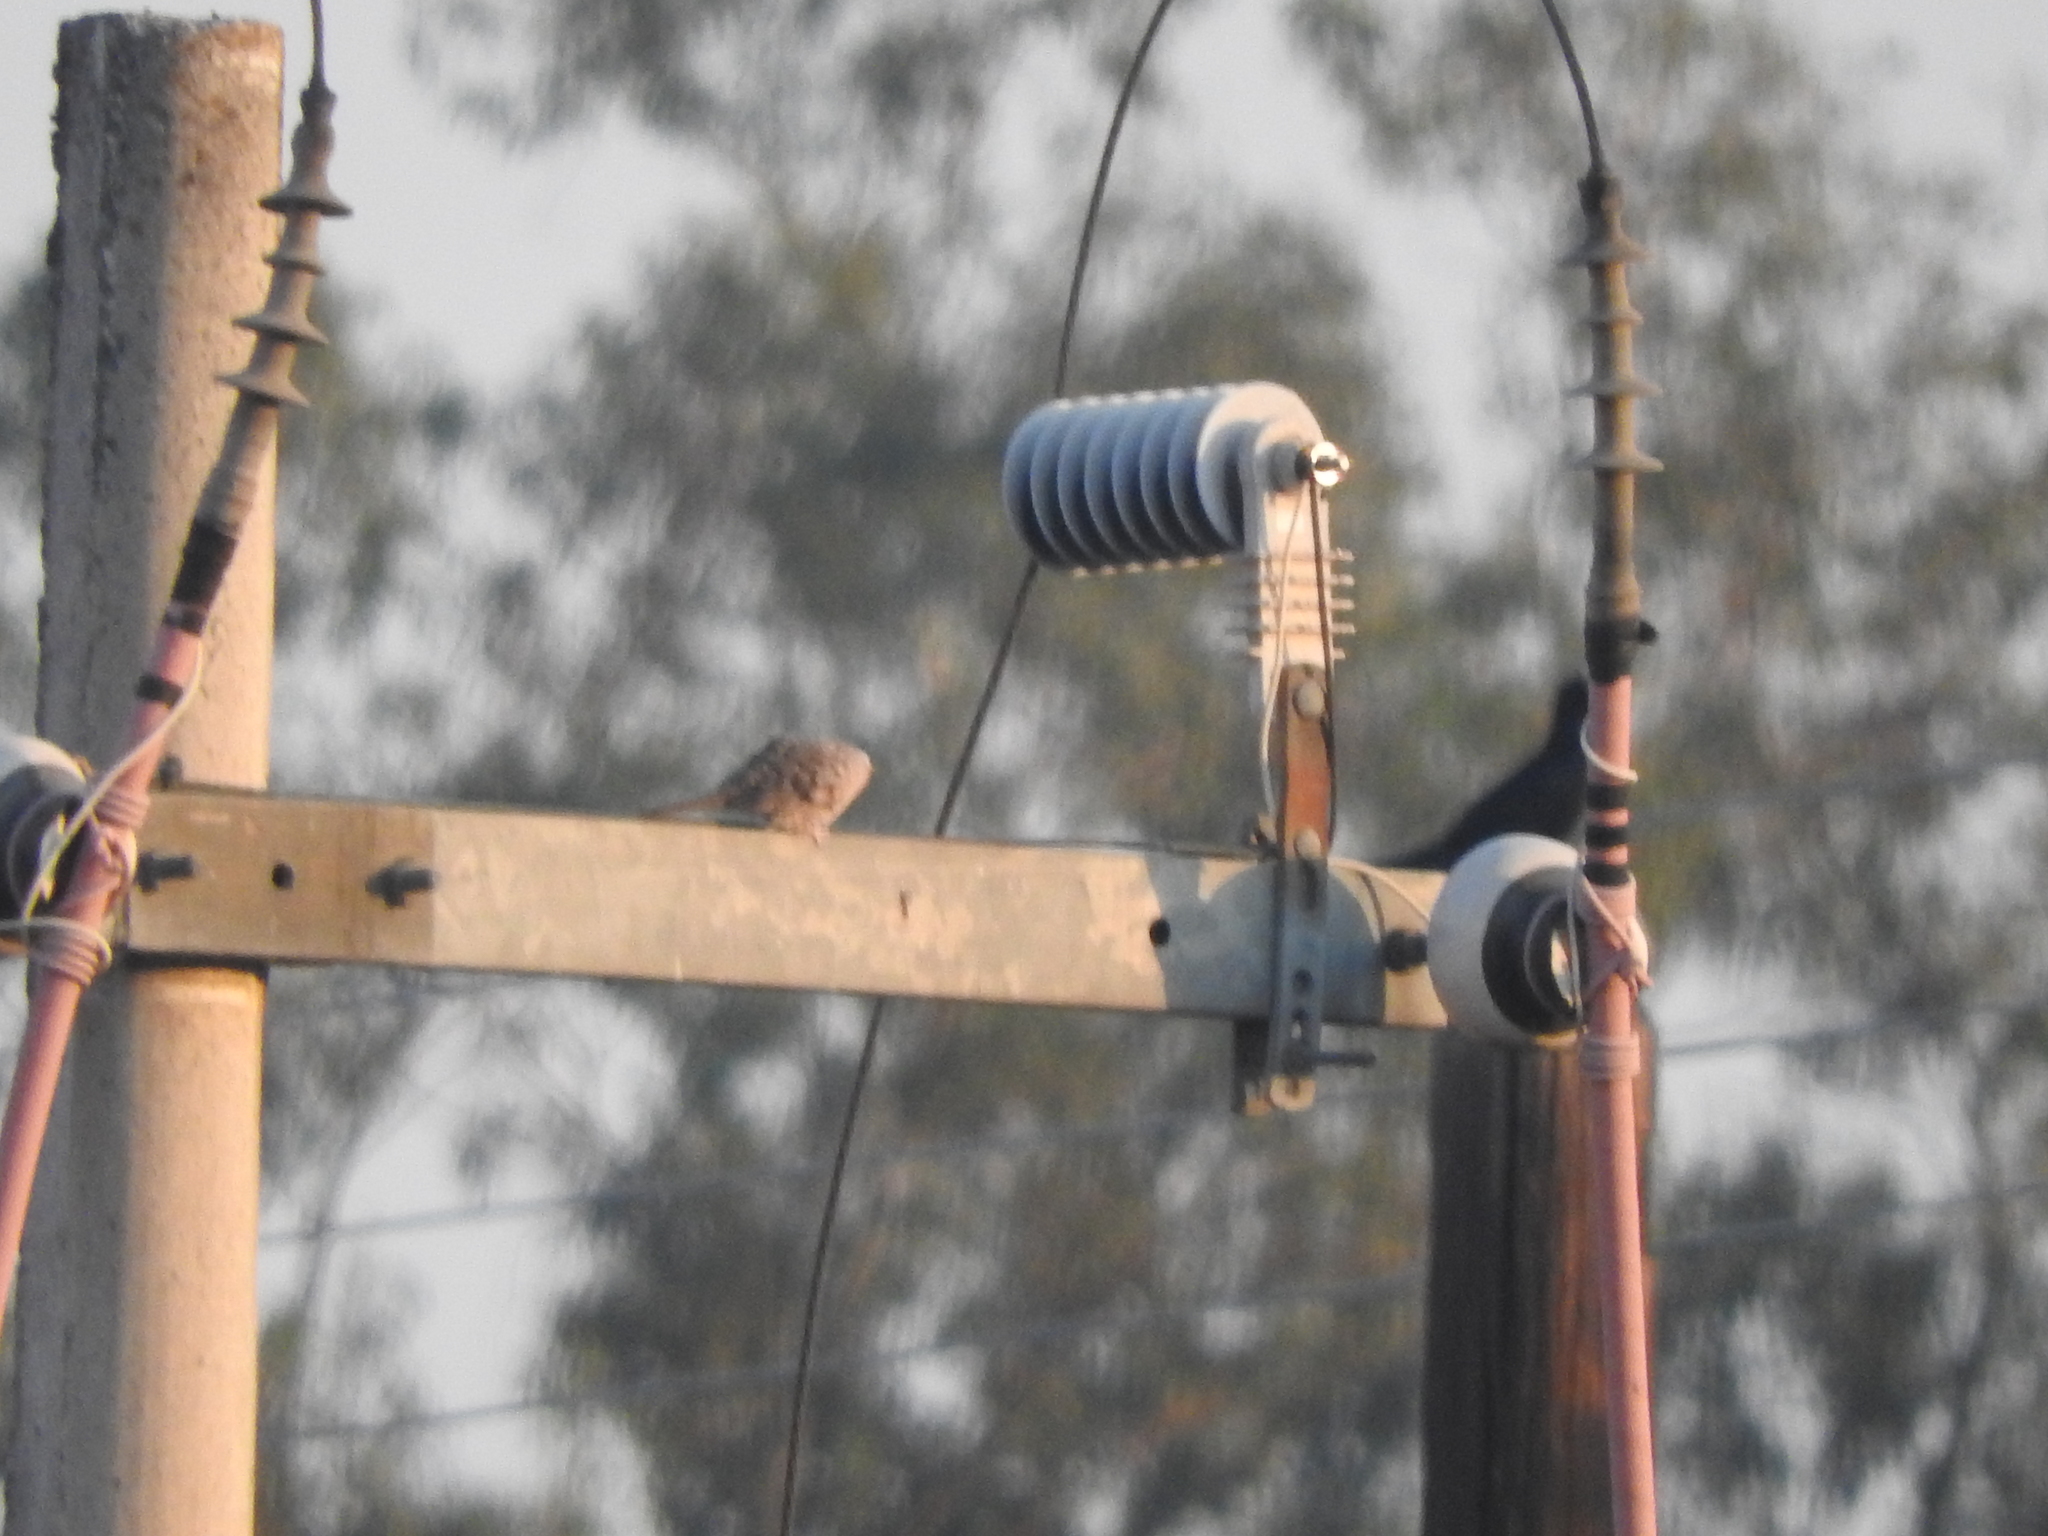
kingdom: Animalia
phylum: Chordata
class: Aves
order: Passeriformes
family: Icteridae
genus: Quiscalus
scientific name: Quiscalus mexicanus
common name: Great-tailed grackle
